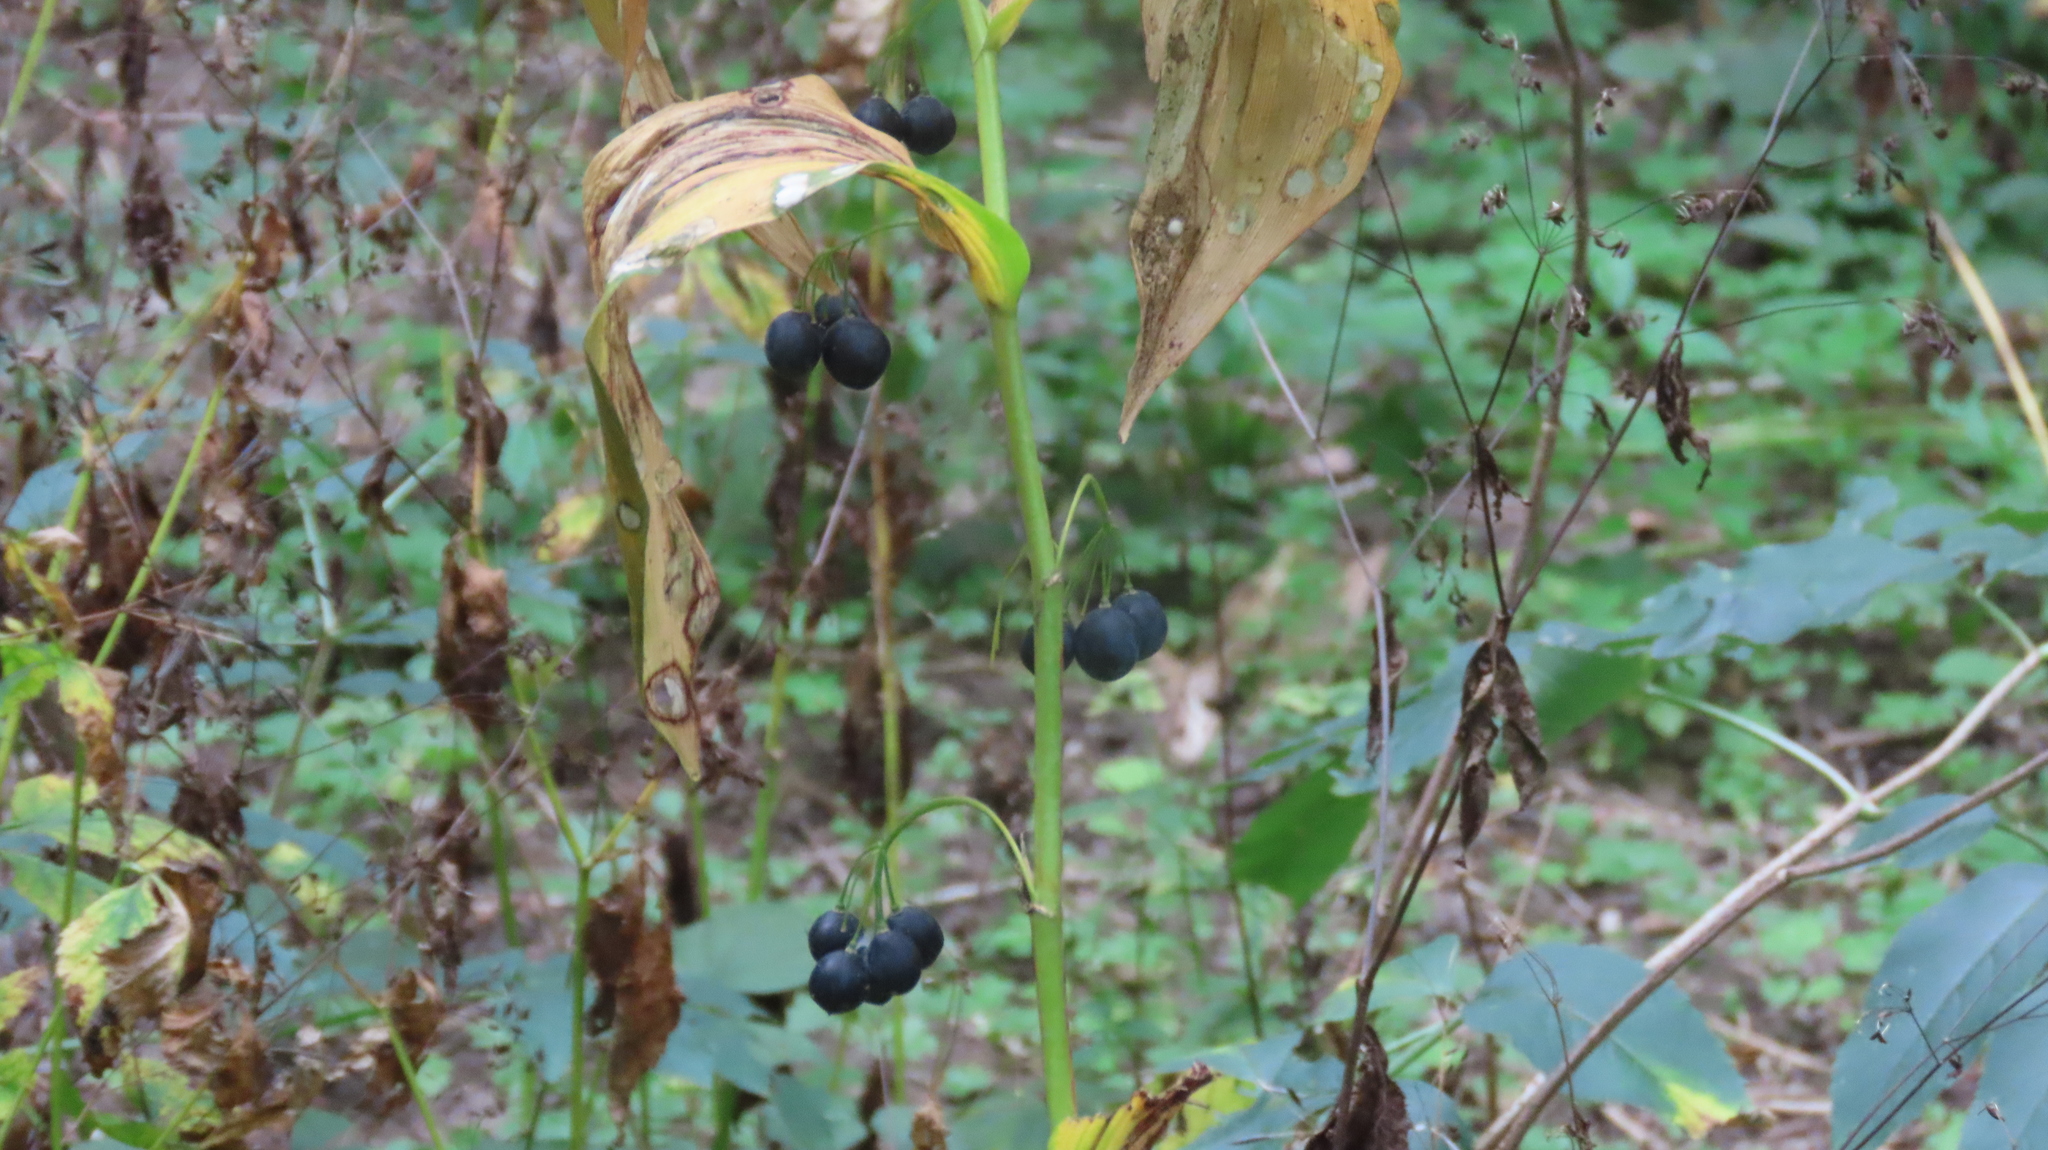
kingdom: Plantae
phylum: Tracheophyta
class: Liliopsida
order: Asparagales
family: Asparagaceae
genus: Polygonatum
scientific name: Polygonatum biflorum
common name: American solomon's-seal
